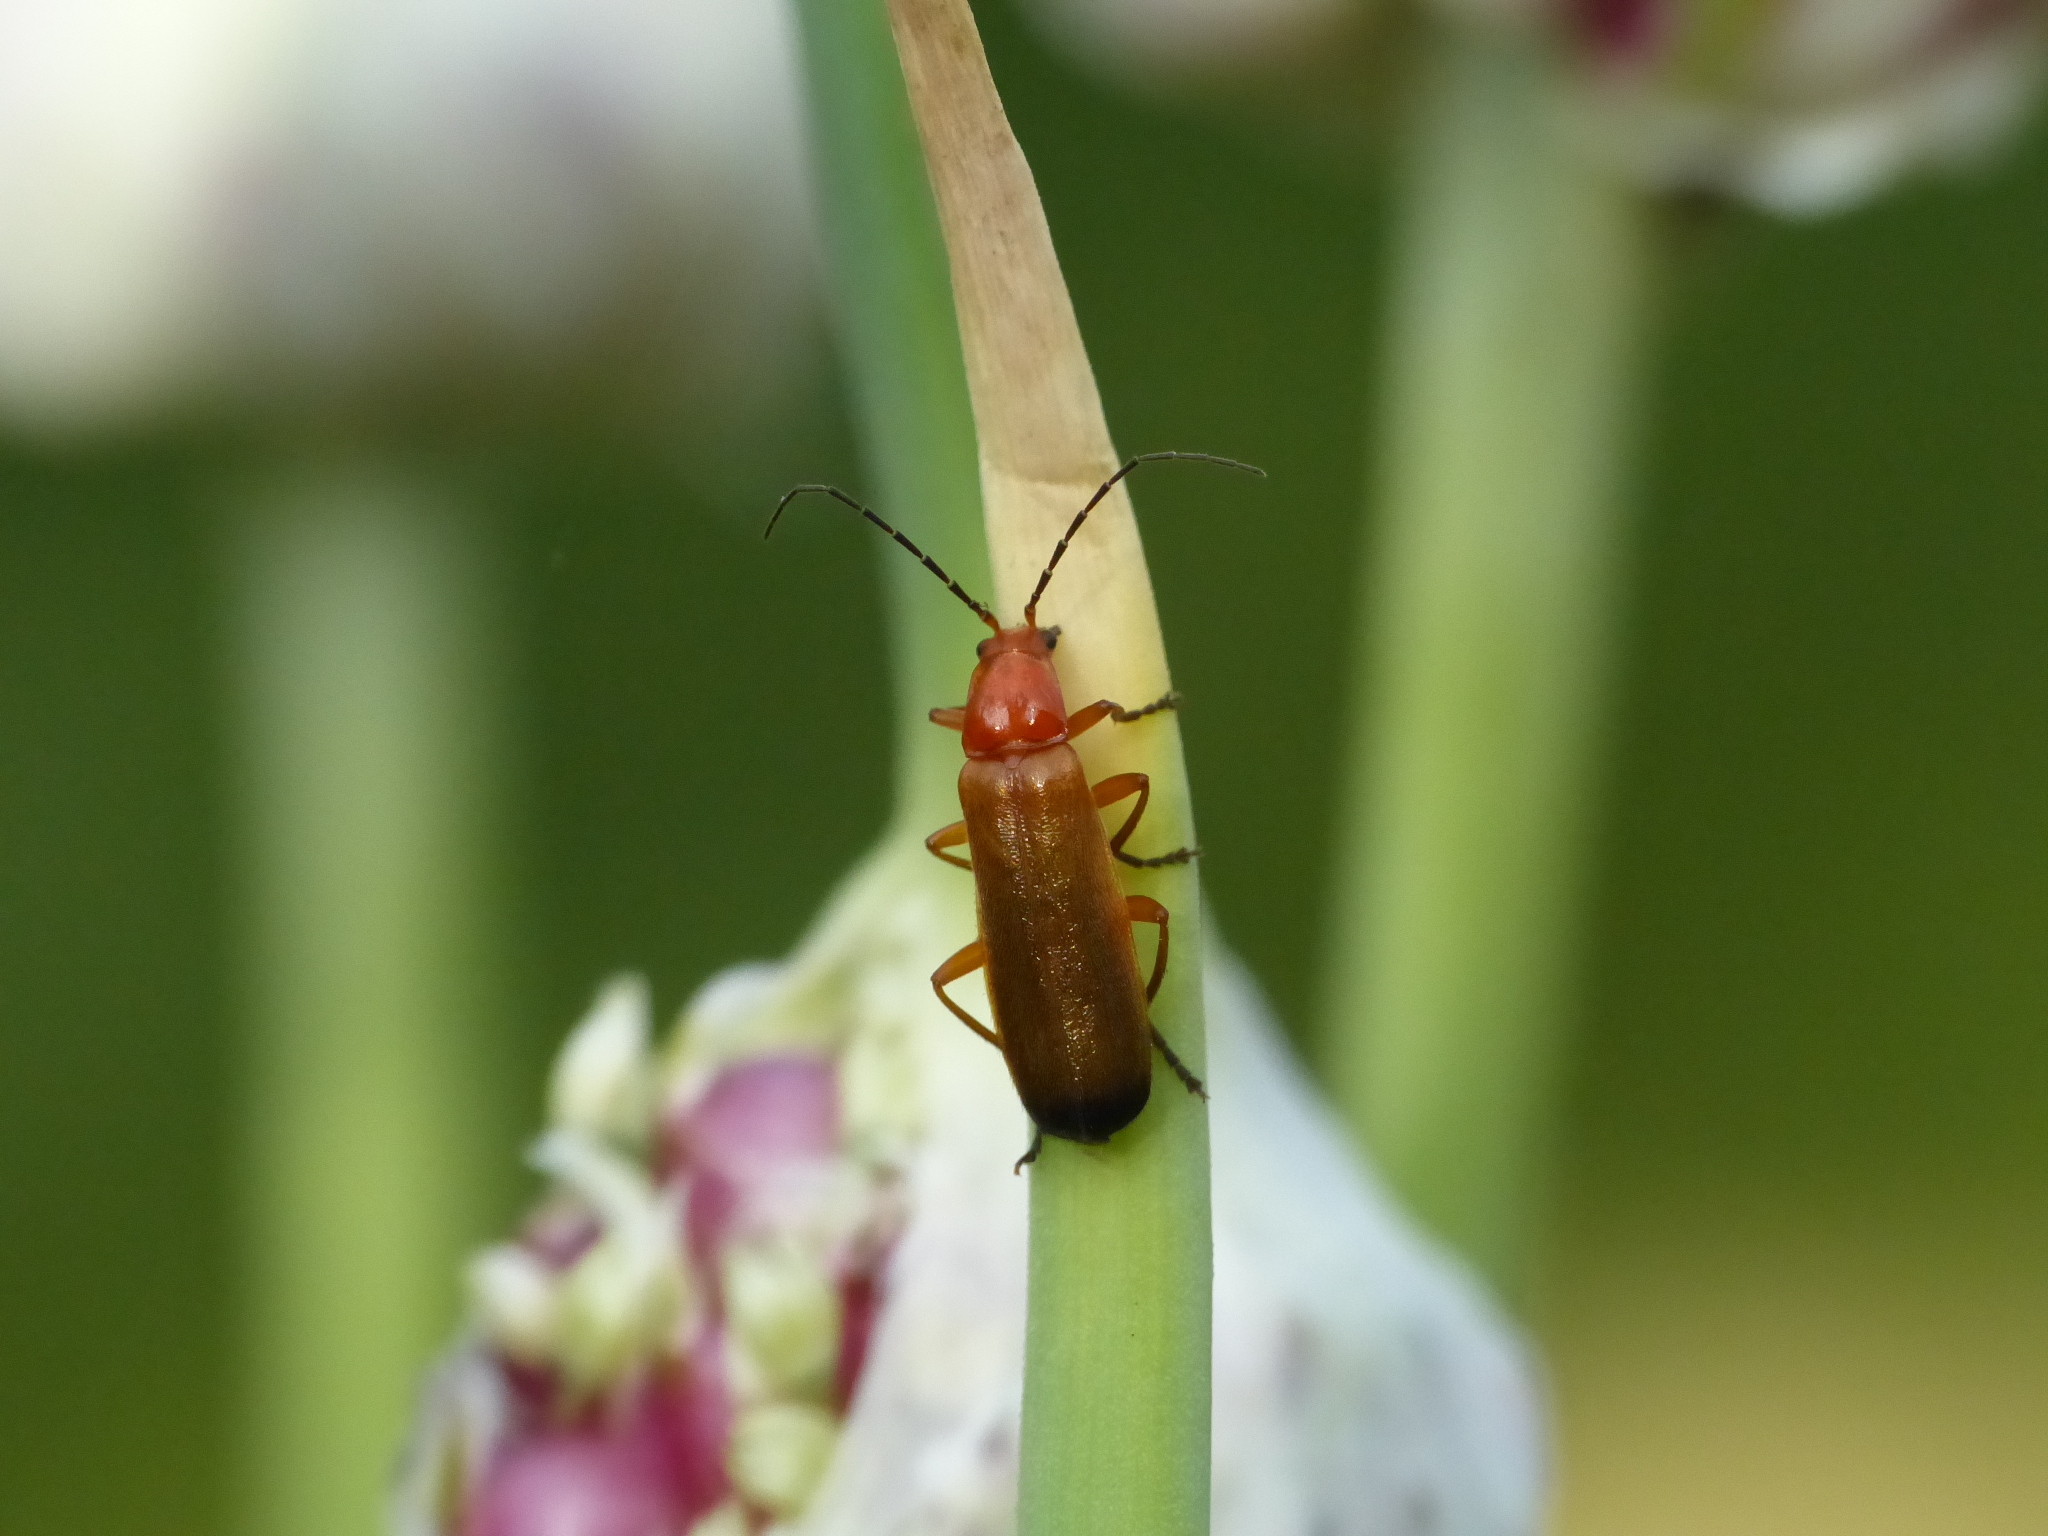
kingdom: Animalia
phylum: Arthropoda
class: Insecta
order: Coleoptera
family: Cantharidae
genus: Rhagonycha
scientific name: Rhagonycha fulva
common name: Common red soldier beetle
